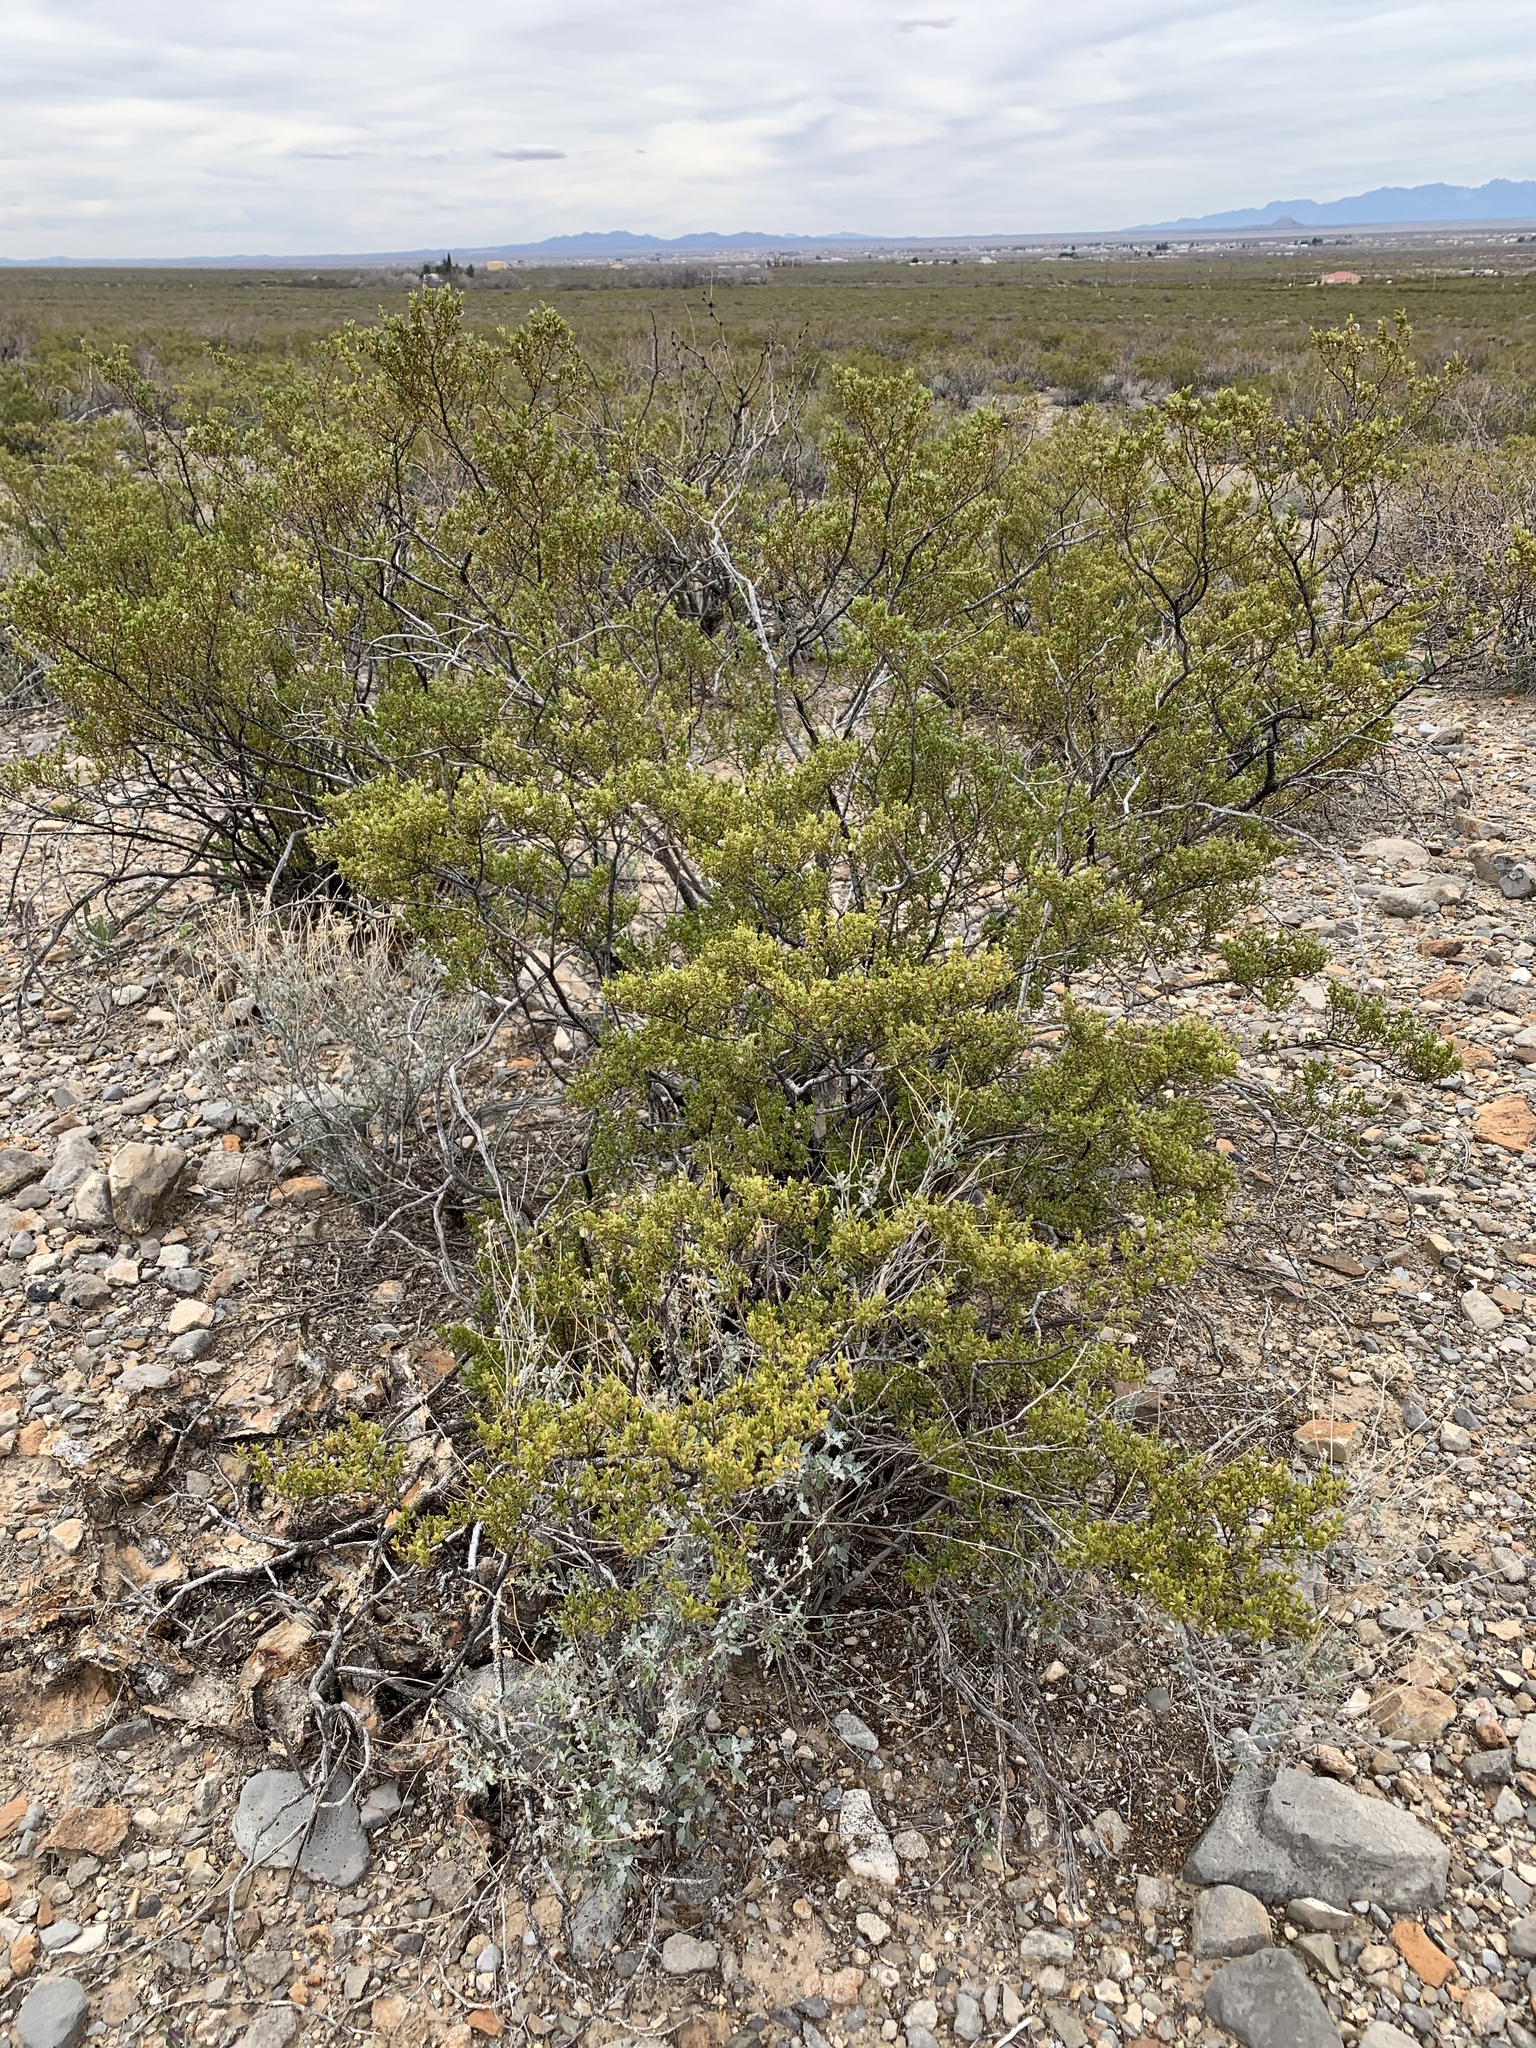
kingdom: Plantae
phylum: Tracheophyta
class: Magnoliopsida
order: Zygophyllales
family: Zygophyllaceae
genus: Larrea
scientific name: Larrea tridentata
